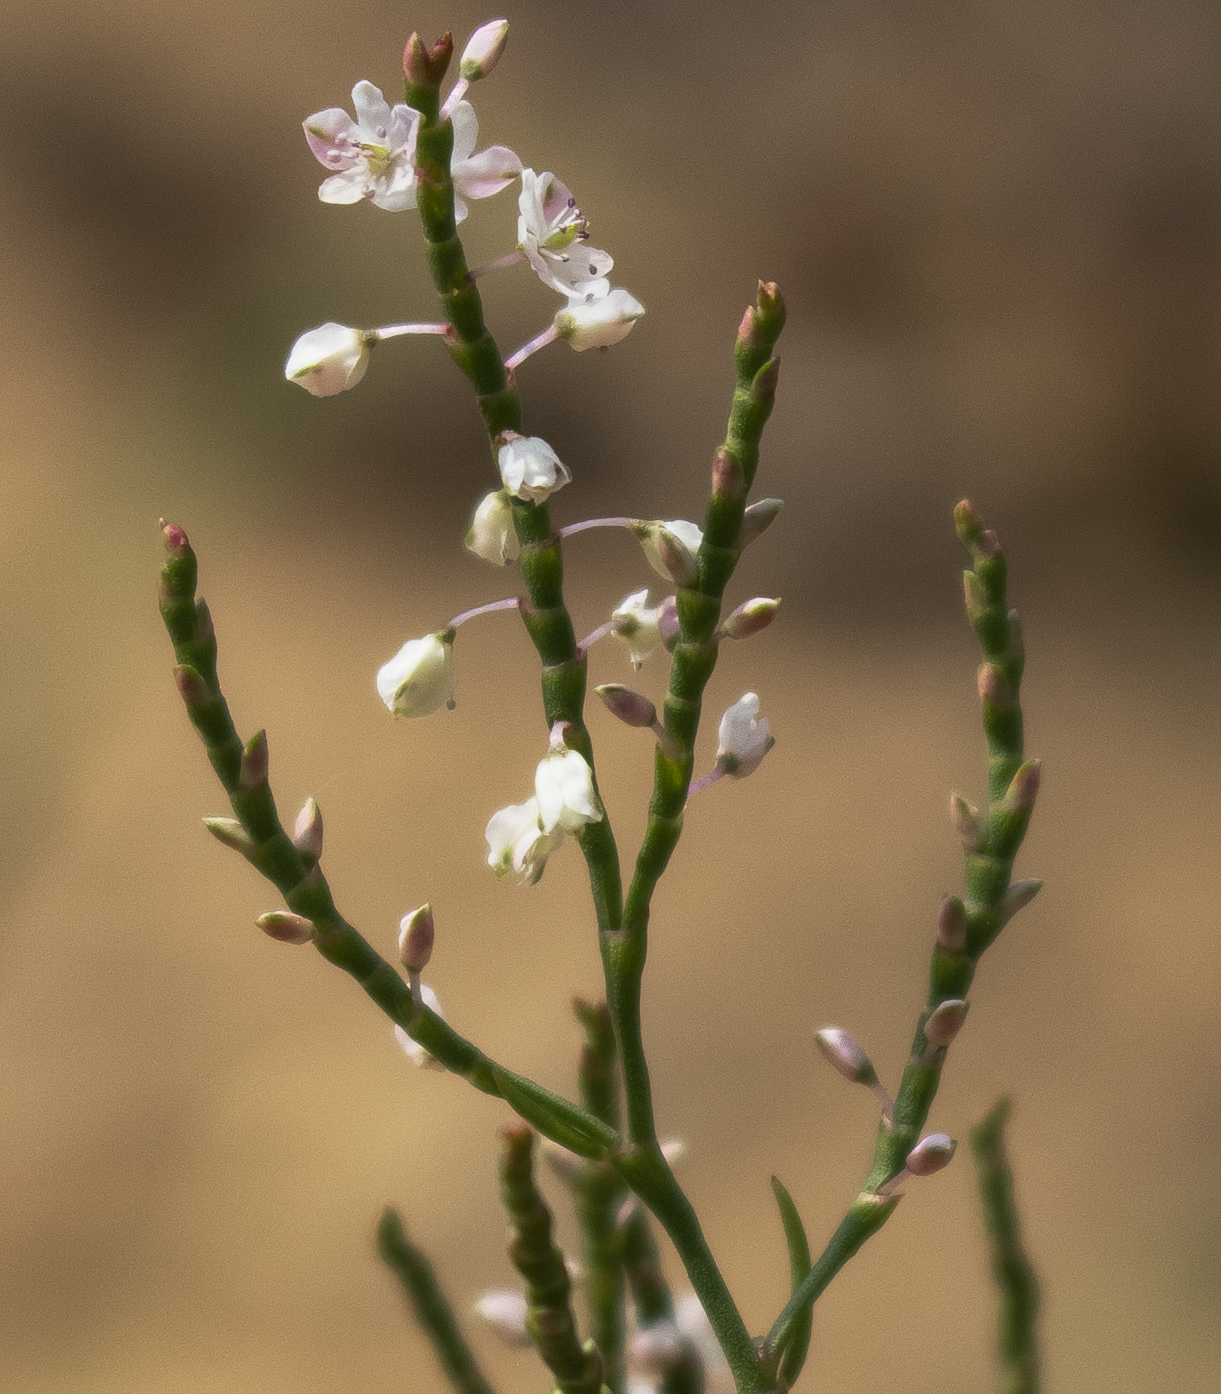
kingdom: Plantae
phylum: Tracheophyta
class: Magnoliopsida
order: Caryophyllales
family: Polygonaceae
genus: Polygonella
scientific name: Polygonella articulata
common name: Coastal jointweed
